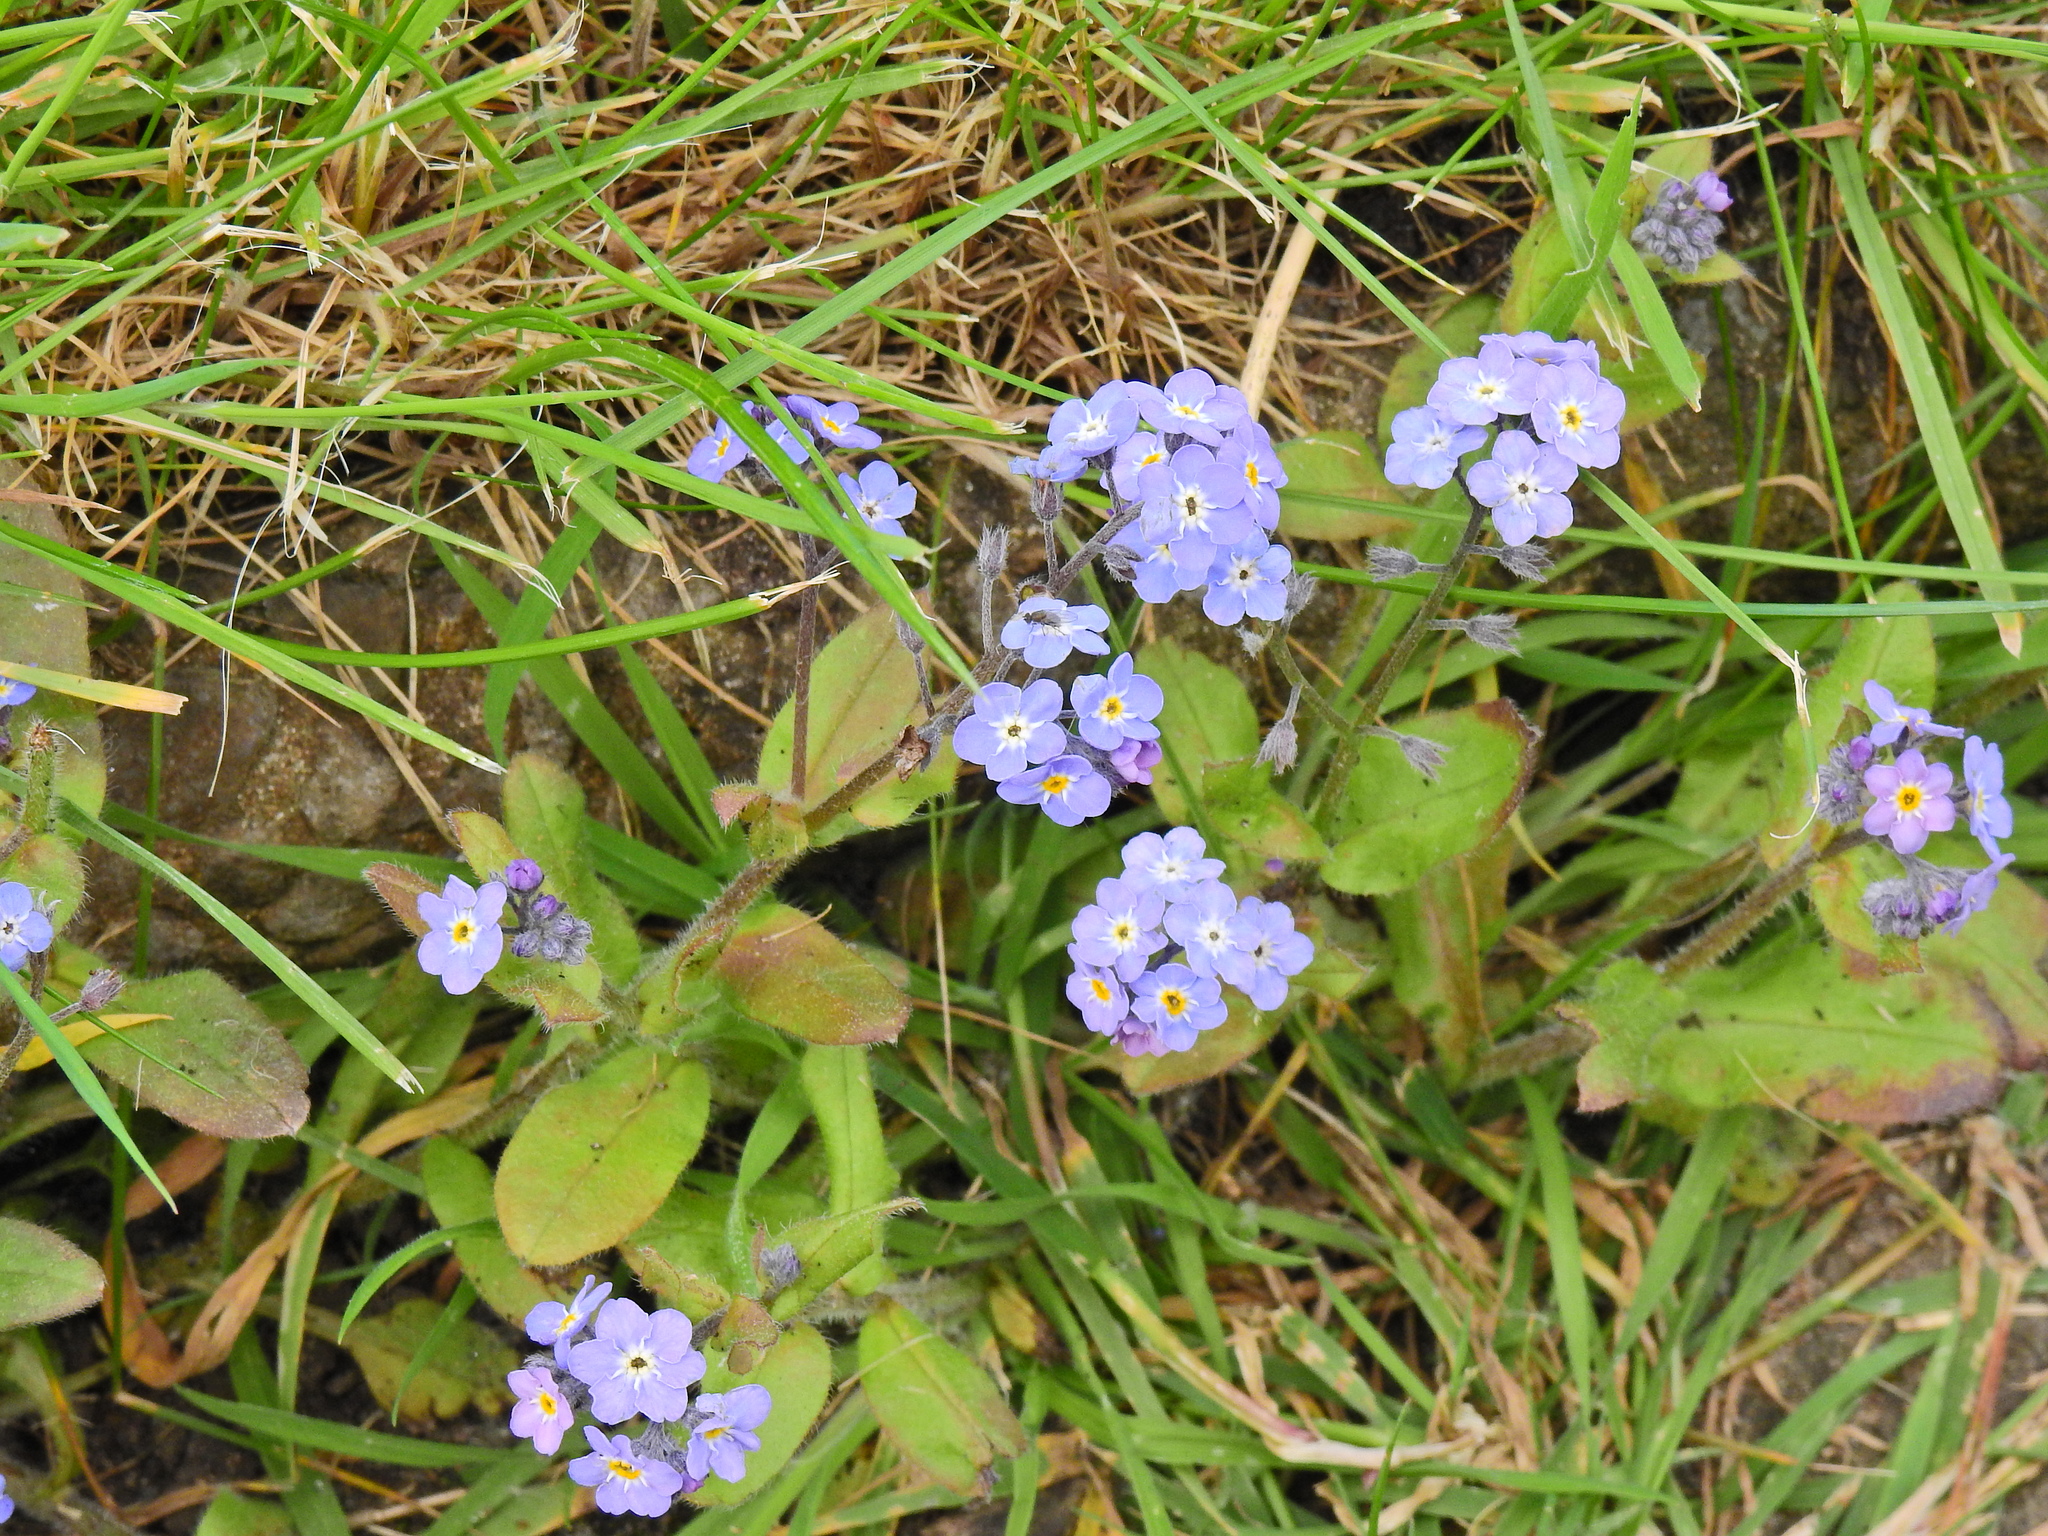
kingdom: Plantae
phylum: Tracheophyta
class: Magnoliopsida
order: Boraginales
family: Boraginaceae
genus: Myosotis
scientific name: Myosotis sylvatica
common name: Wood forget-me-not
